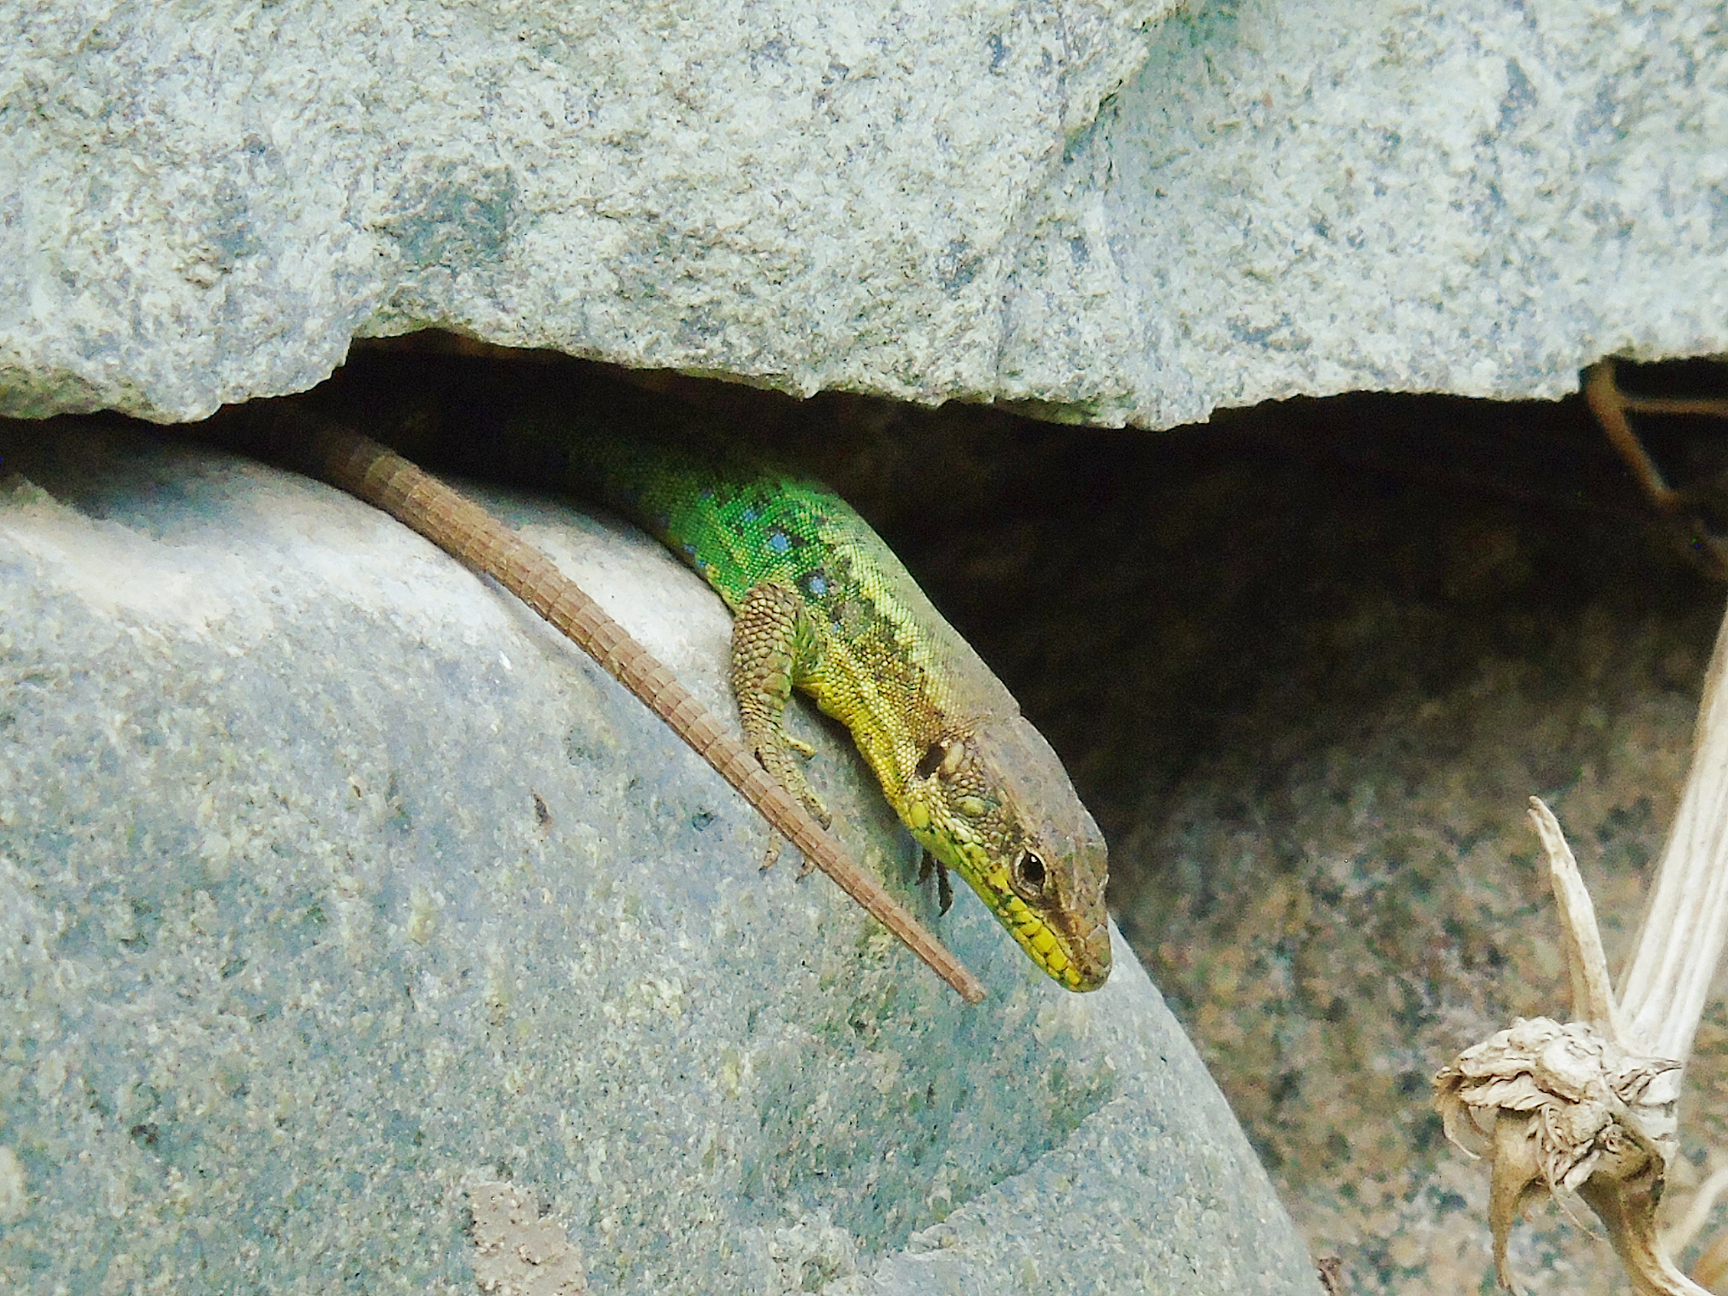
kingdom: Animalia
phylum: Chordata
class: Squamata
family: Lacertidae
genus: Darevskia
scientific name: Darevskia rudis
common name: Spiny-tailed lizard
